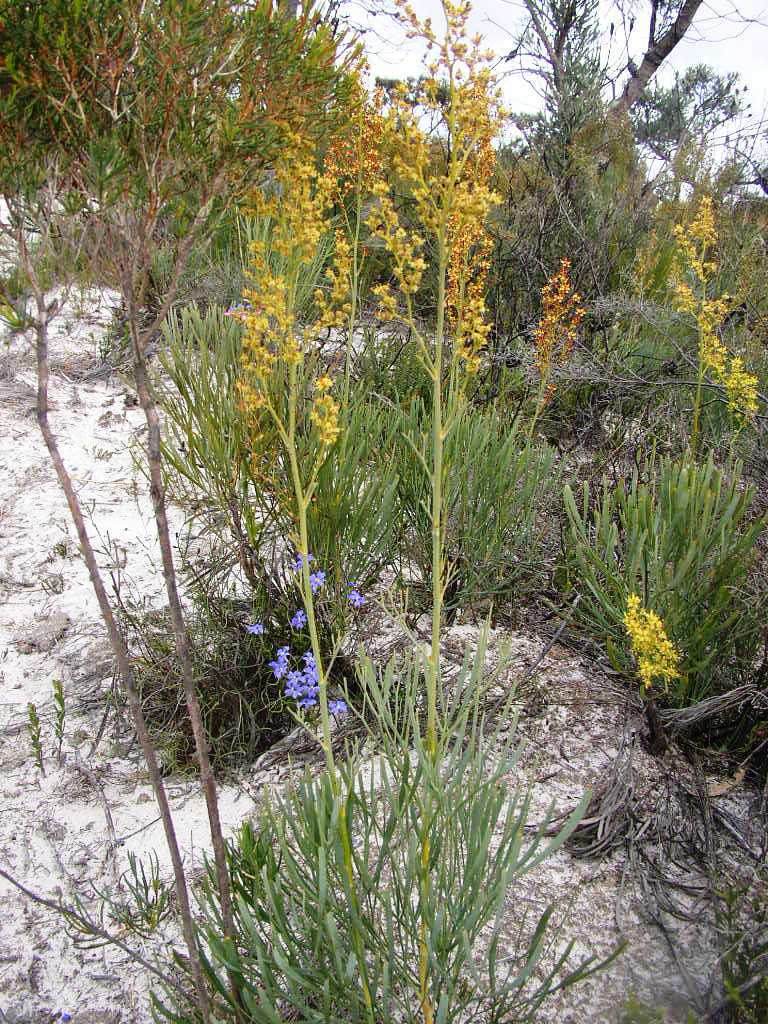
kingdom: Plantae
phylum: Tracheophyta
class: Magnoliopsida
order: Proteales
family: Proteaceae
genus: Stirlingia
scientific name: Stirlingia latifolia
